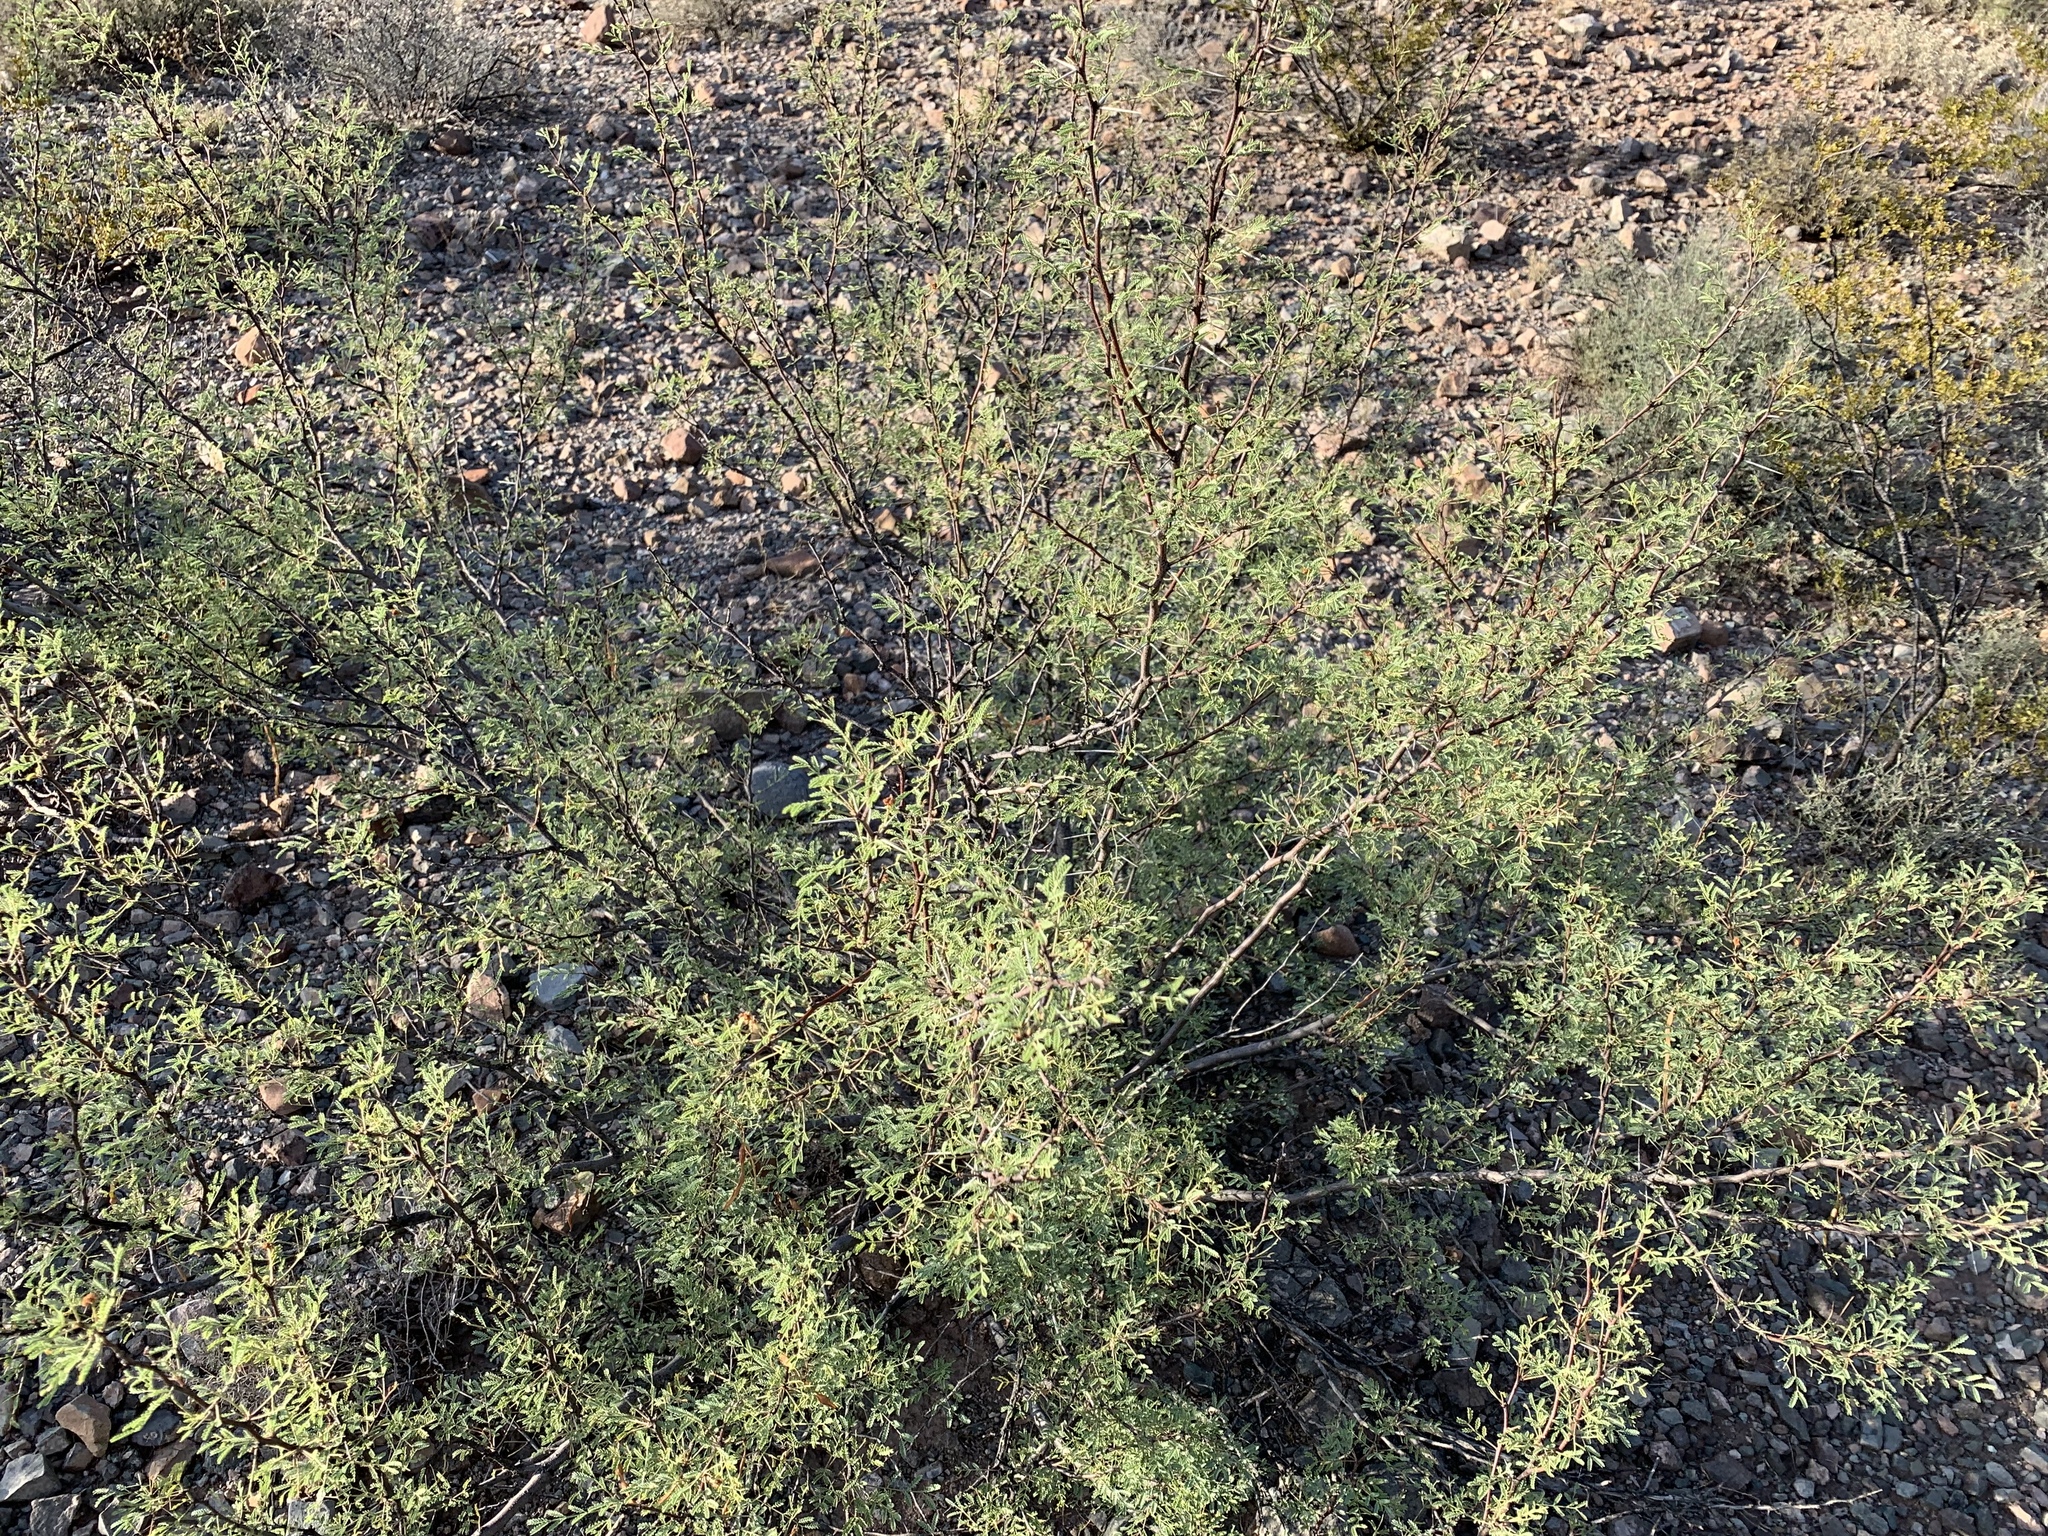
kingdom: Plantae
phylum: Tracheophyta
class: Magnoliopsida
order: Fabales
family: Fabaceae
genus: Vachellia
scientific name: Vachellia constricta
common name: Mescat acacia
